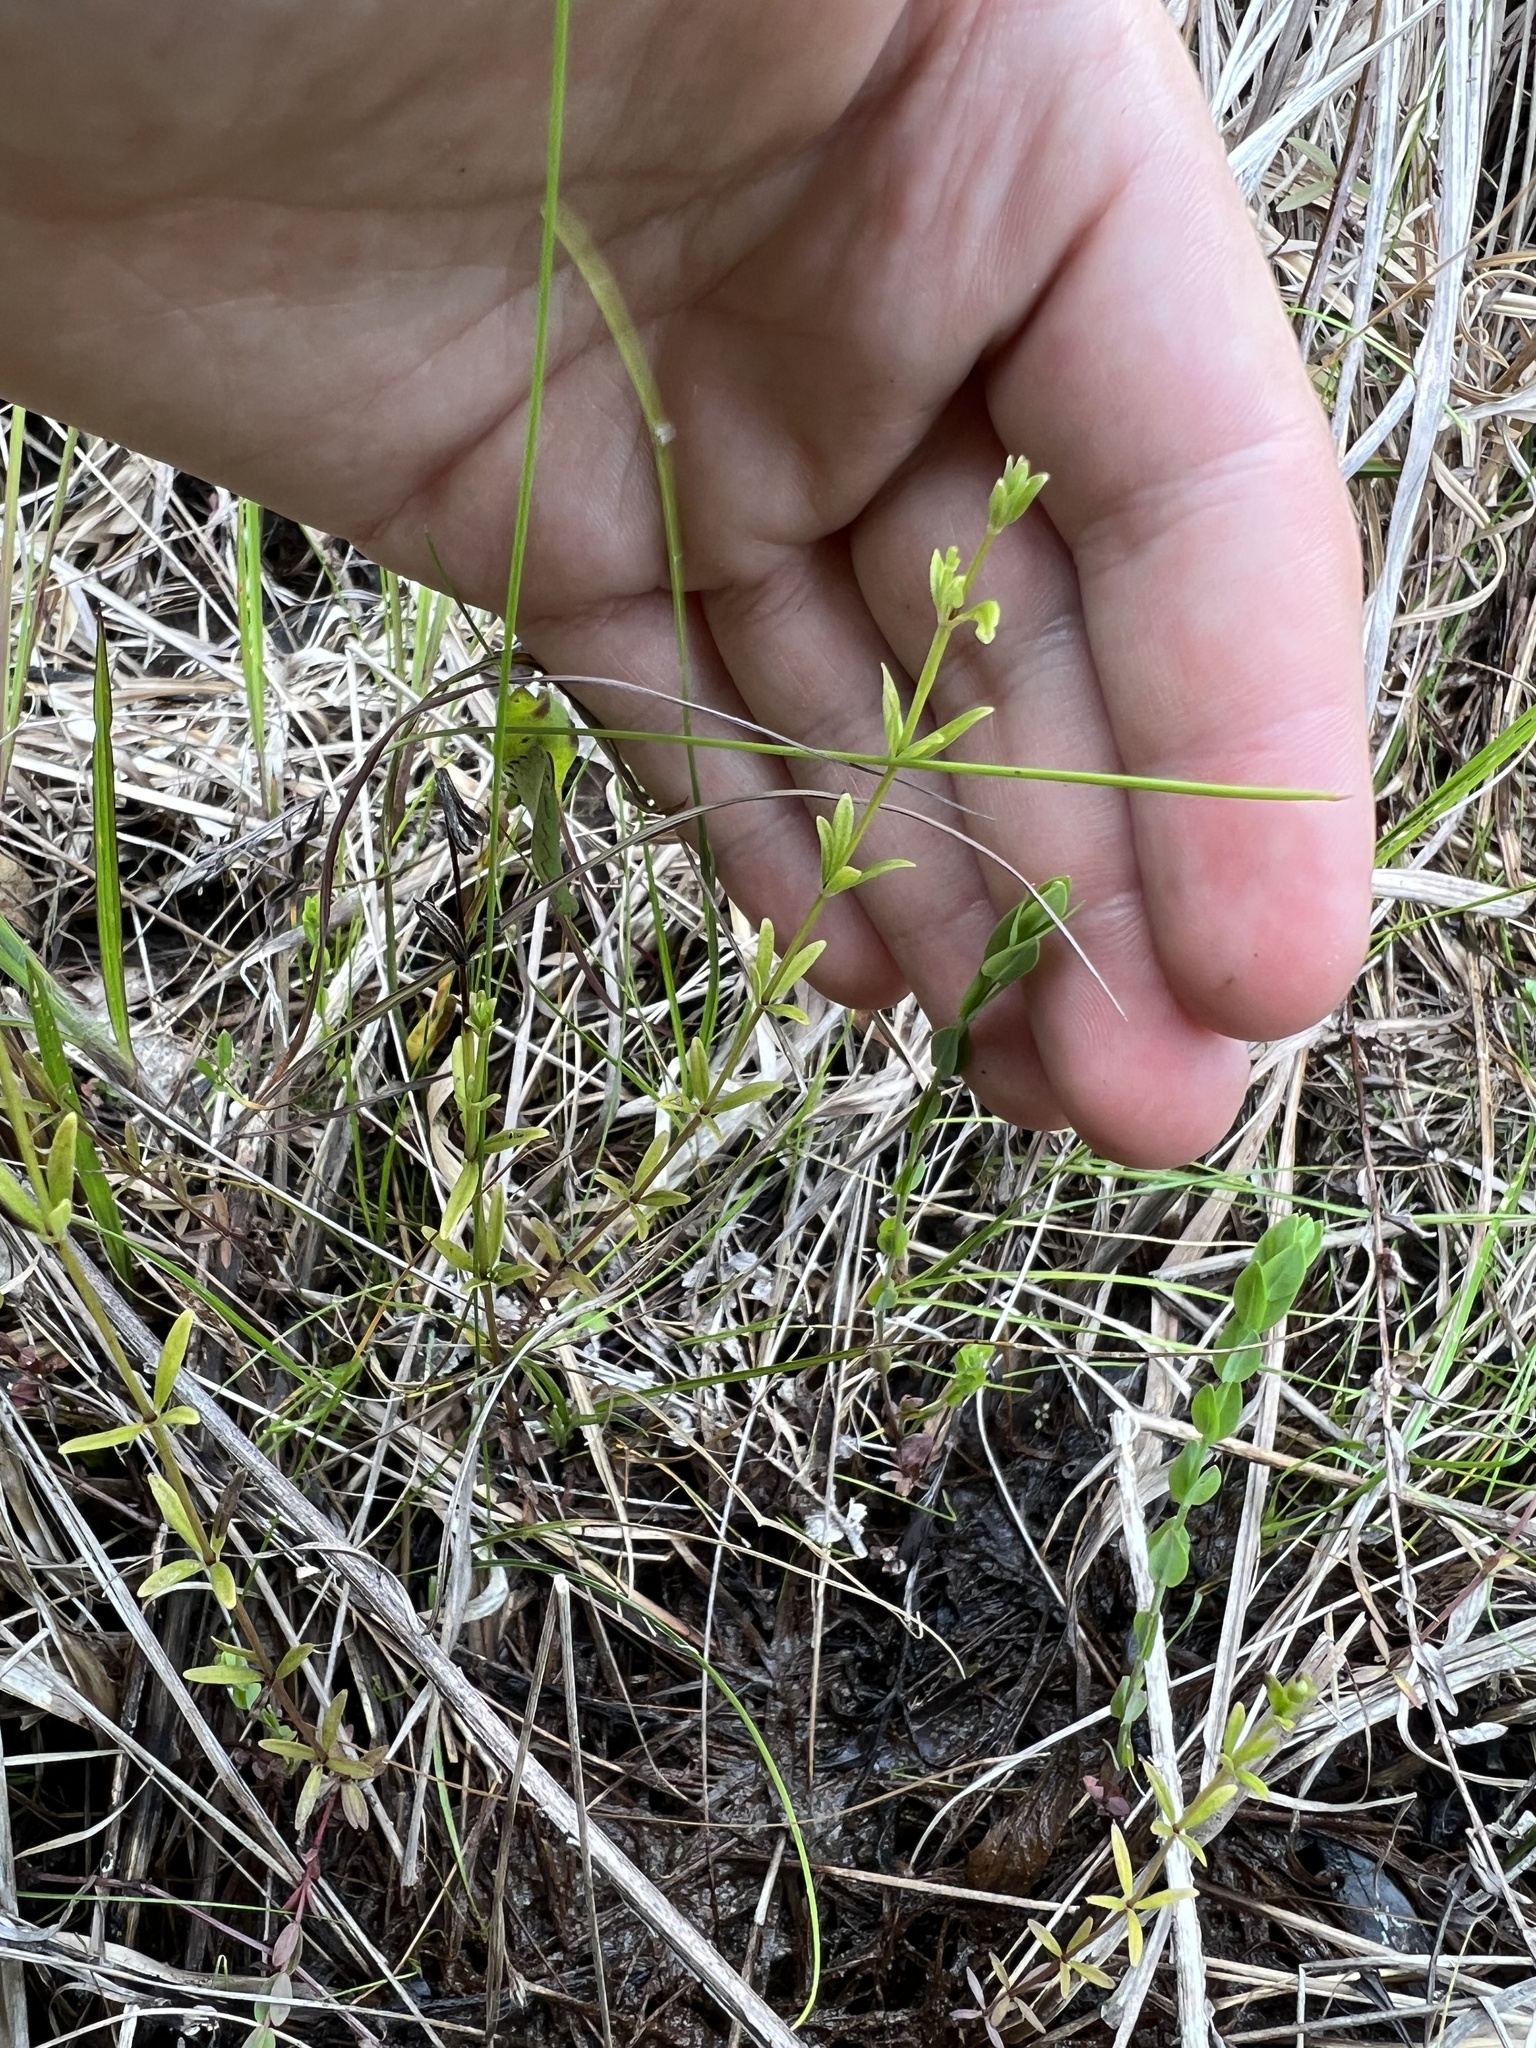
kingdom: Plantae
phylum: Tracheophyta
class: Magnoliopsida
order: Gentianales
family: Rubiaceae
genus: Galium
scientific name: Galium obtusum
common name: Blunt-leaved bedstraw
